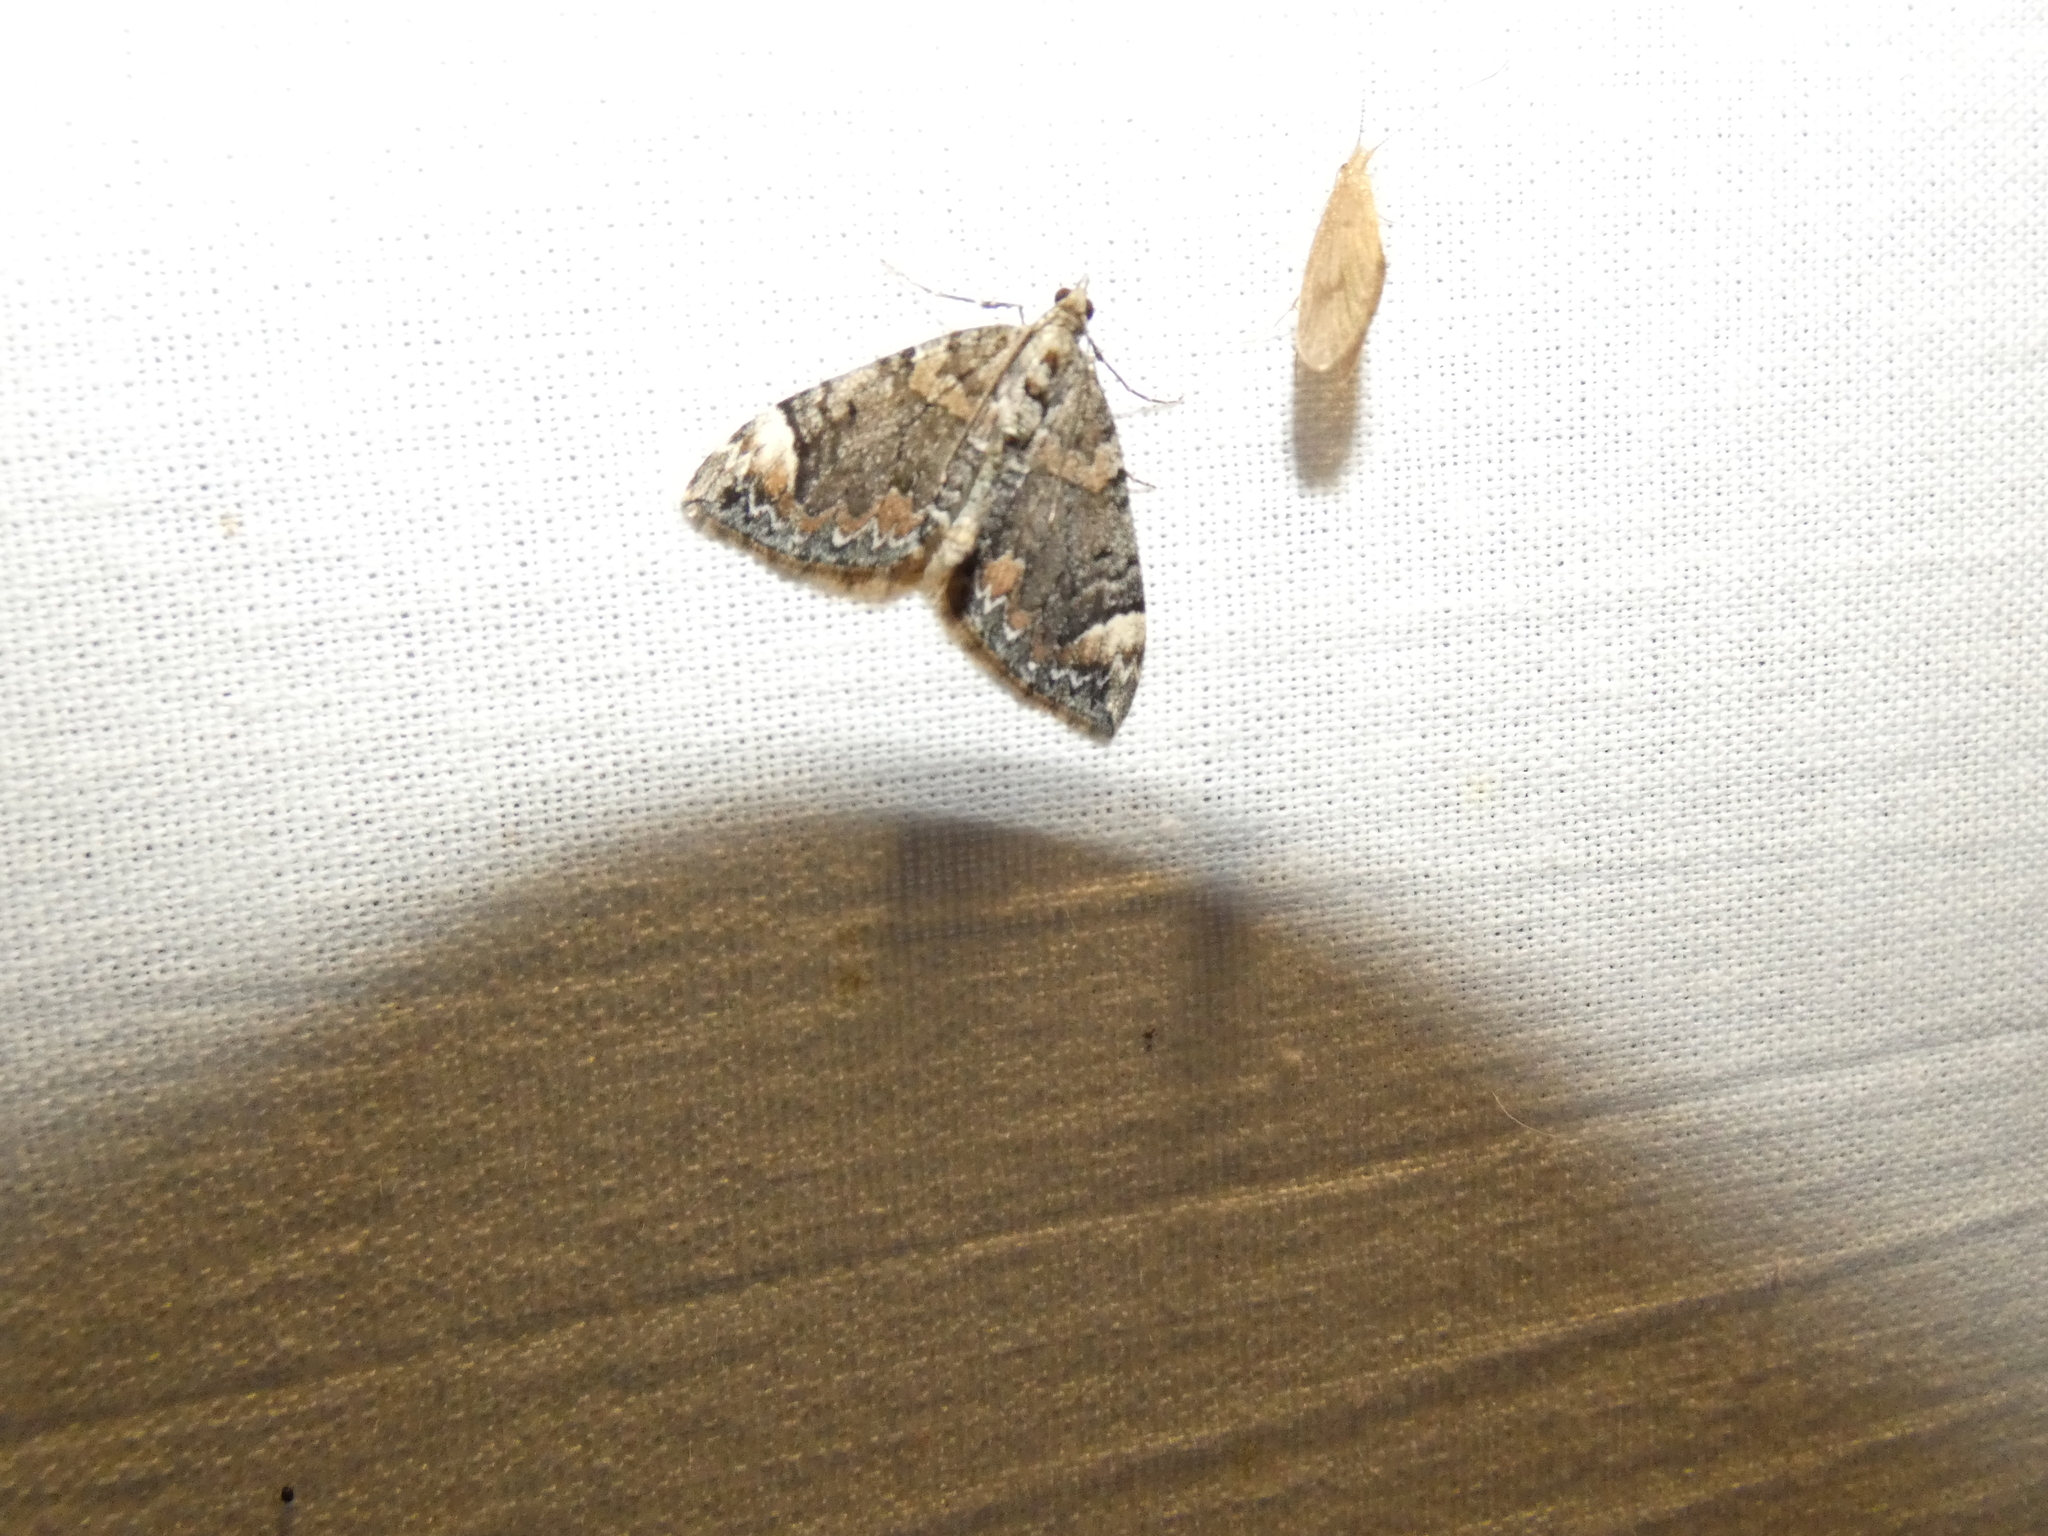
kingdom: Animalia
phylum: Arthropoda
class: Insecta
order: Lepidoptera
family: Geometridae
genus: Dysstroma
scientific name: Dysstroma citrata
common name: Dark marbled carpet
